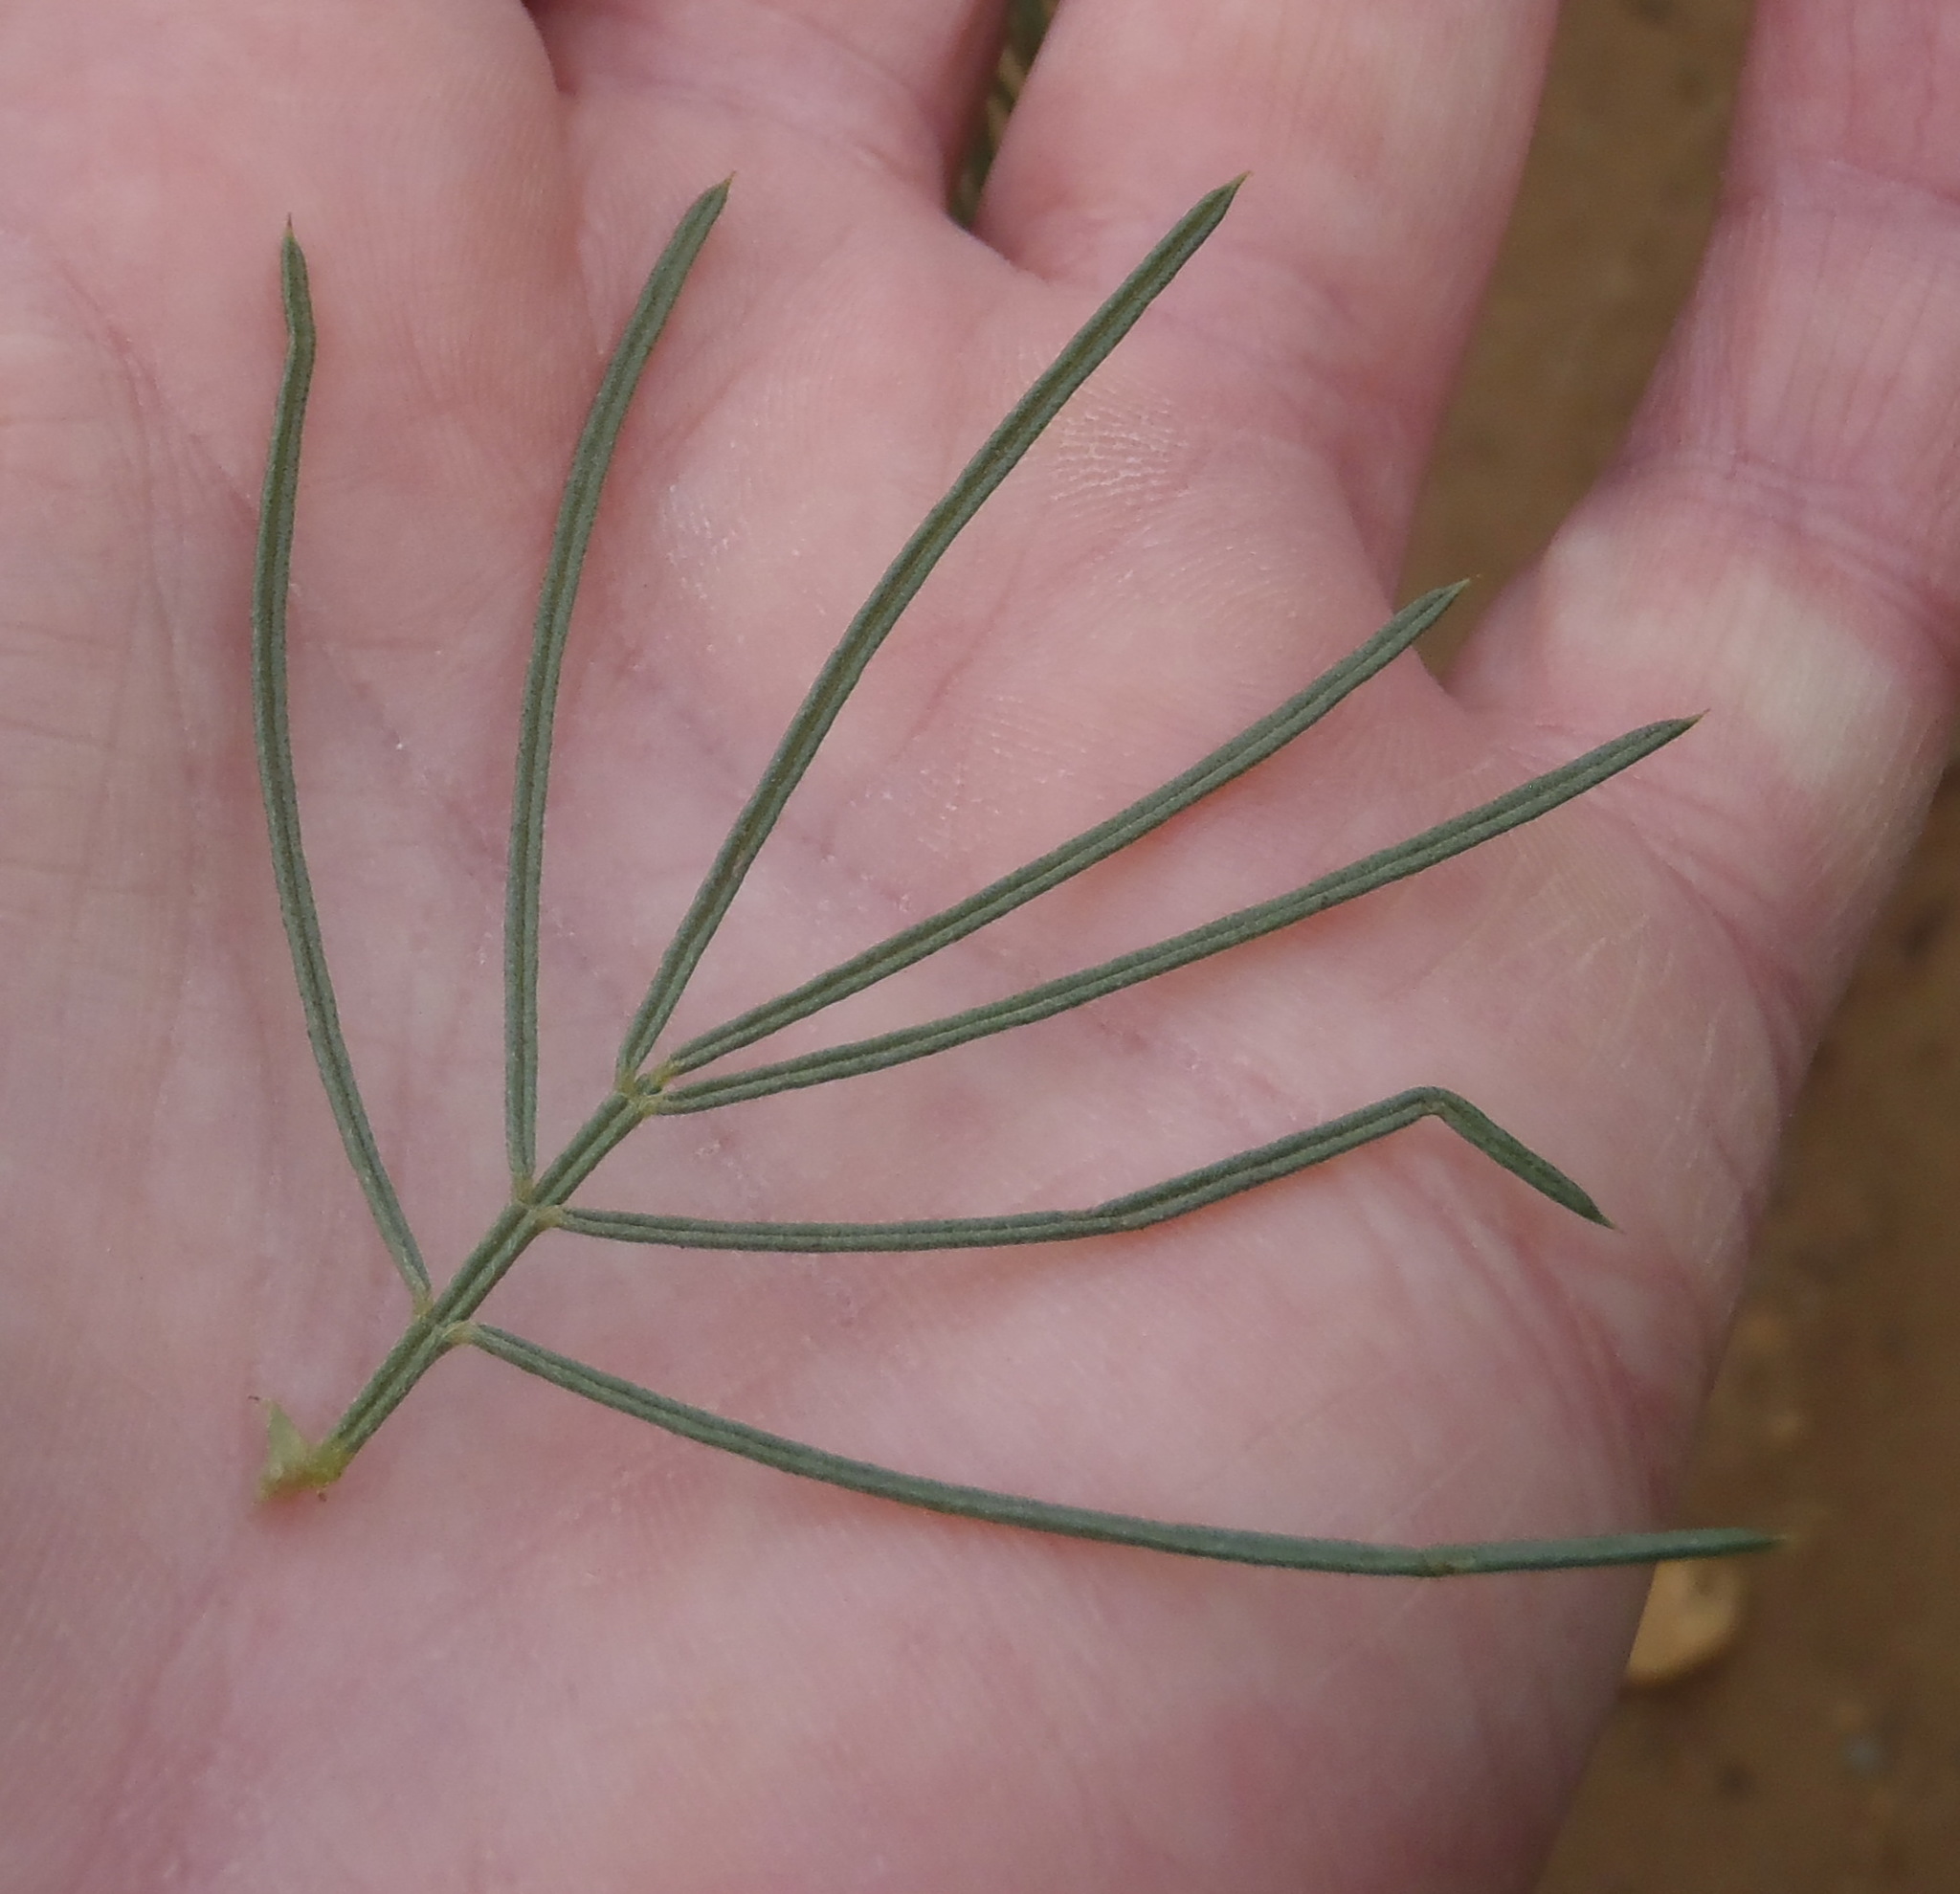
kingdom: Plantae
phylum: Tracheophyta
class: Magnoliopsida
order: Fabales
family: Fabaceae
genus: Psoralea
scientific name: Psoralea brilliantissima
